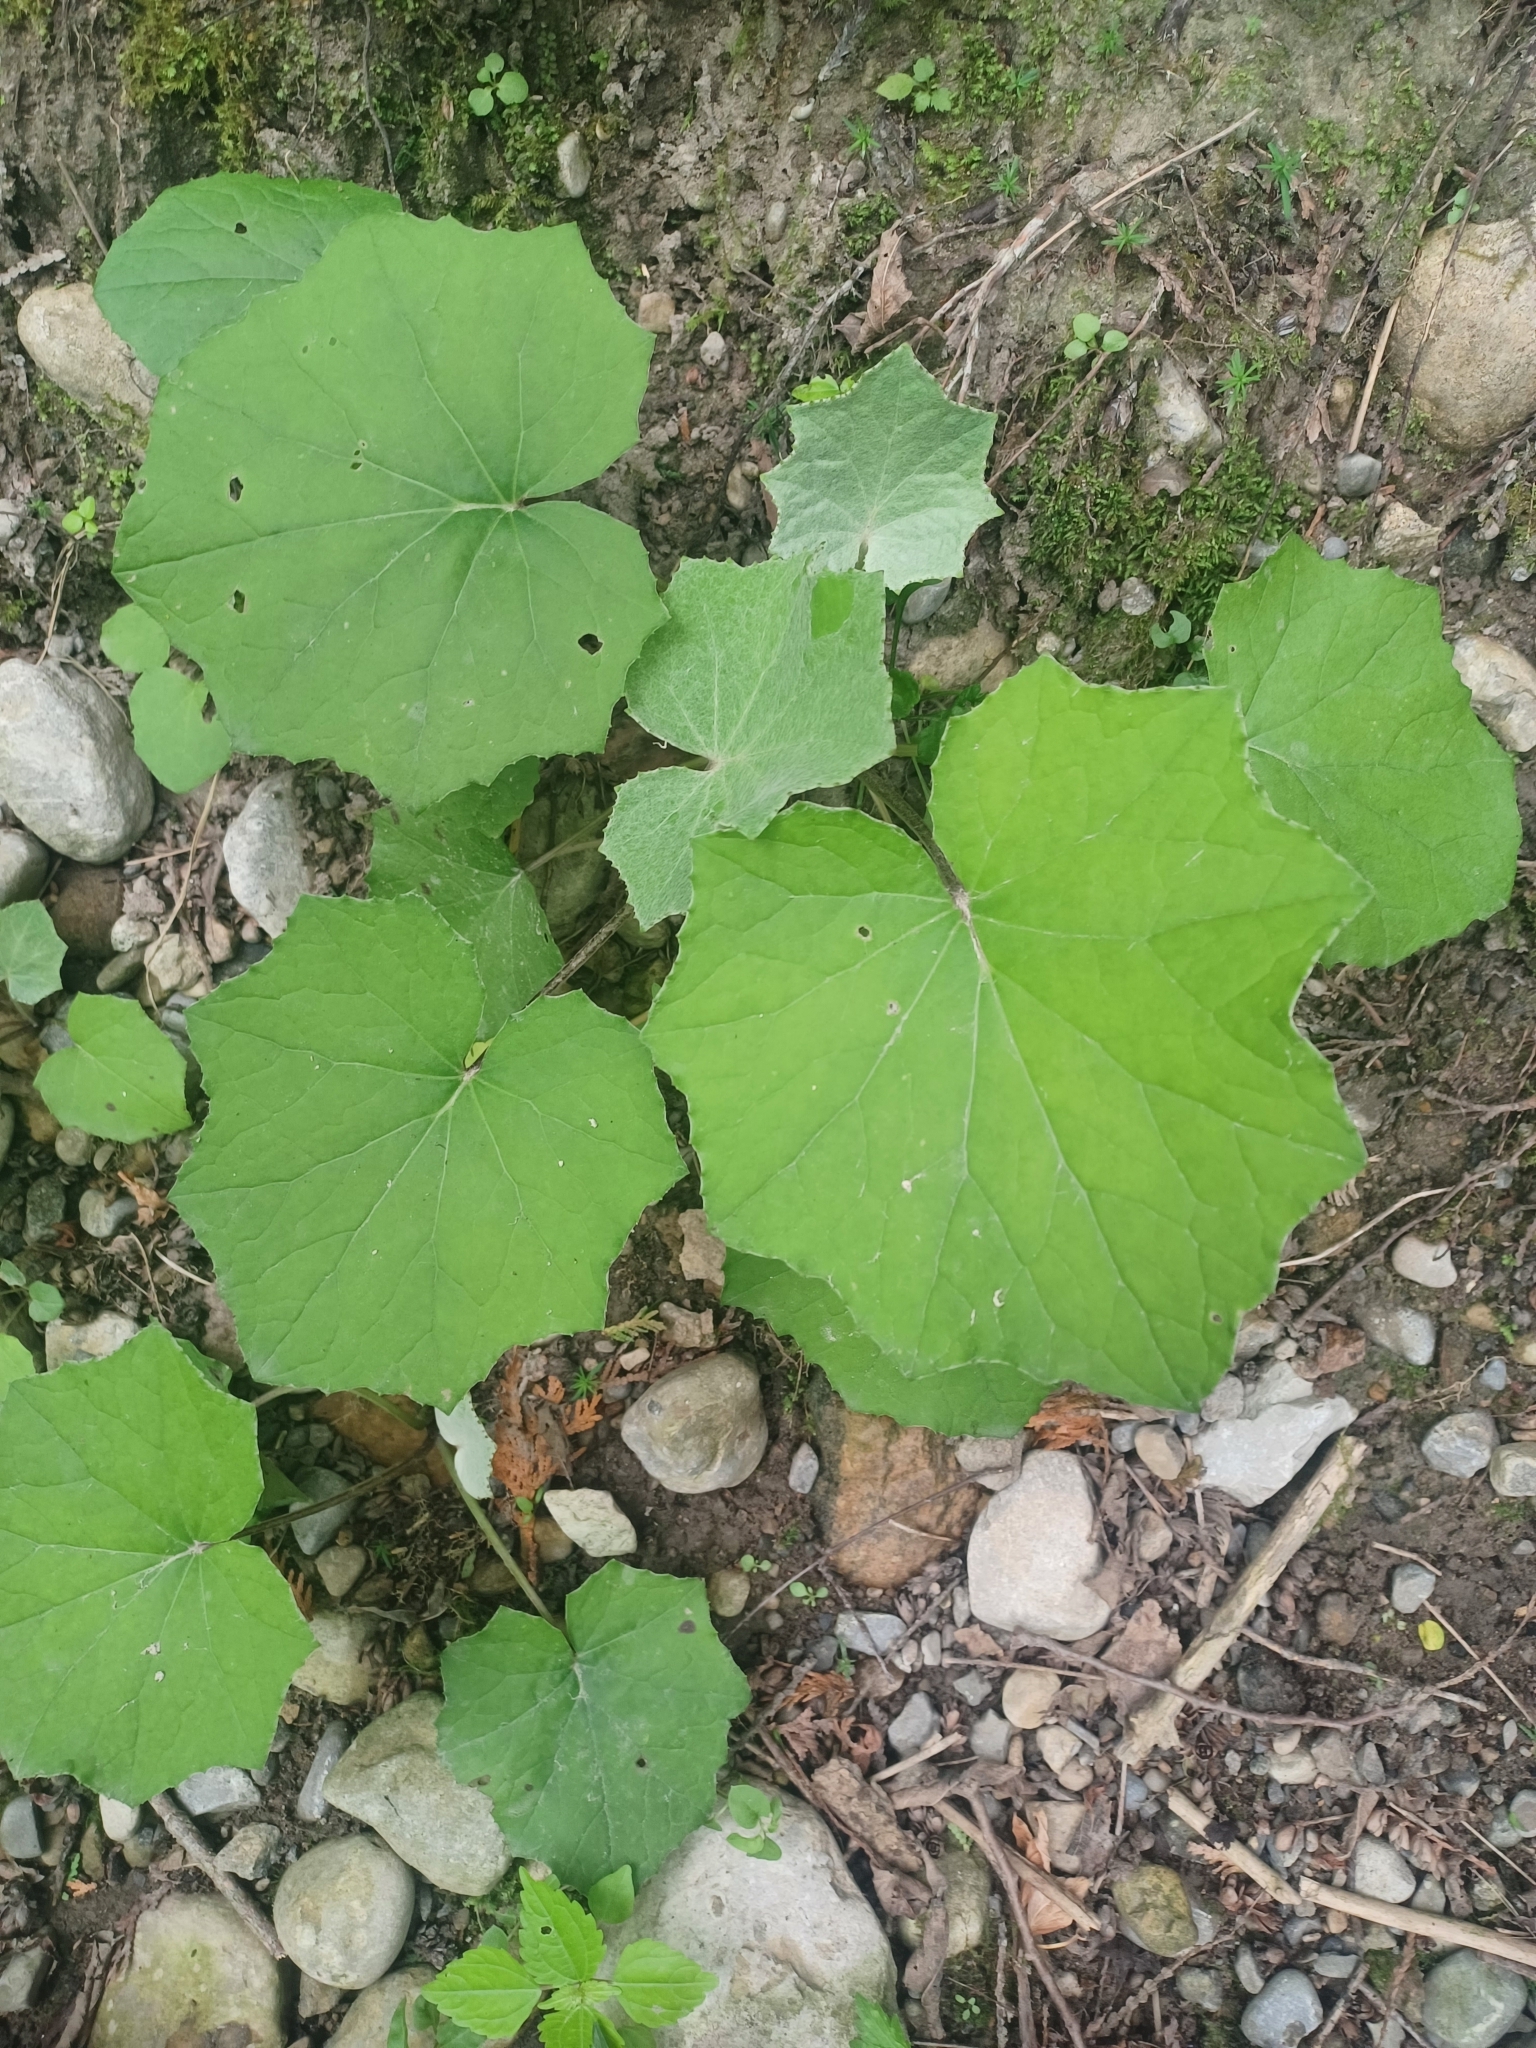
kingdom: Plantae
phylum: Tracheophyta
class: Magnoliopsida
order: Asterales
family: Asteraceae
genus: Tussilago
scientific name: Tussilago farfara
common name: Coltsfoot
